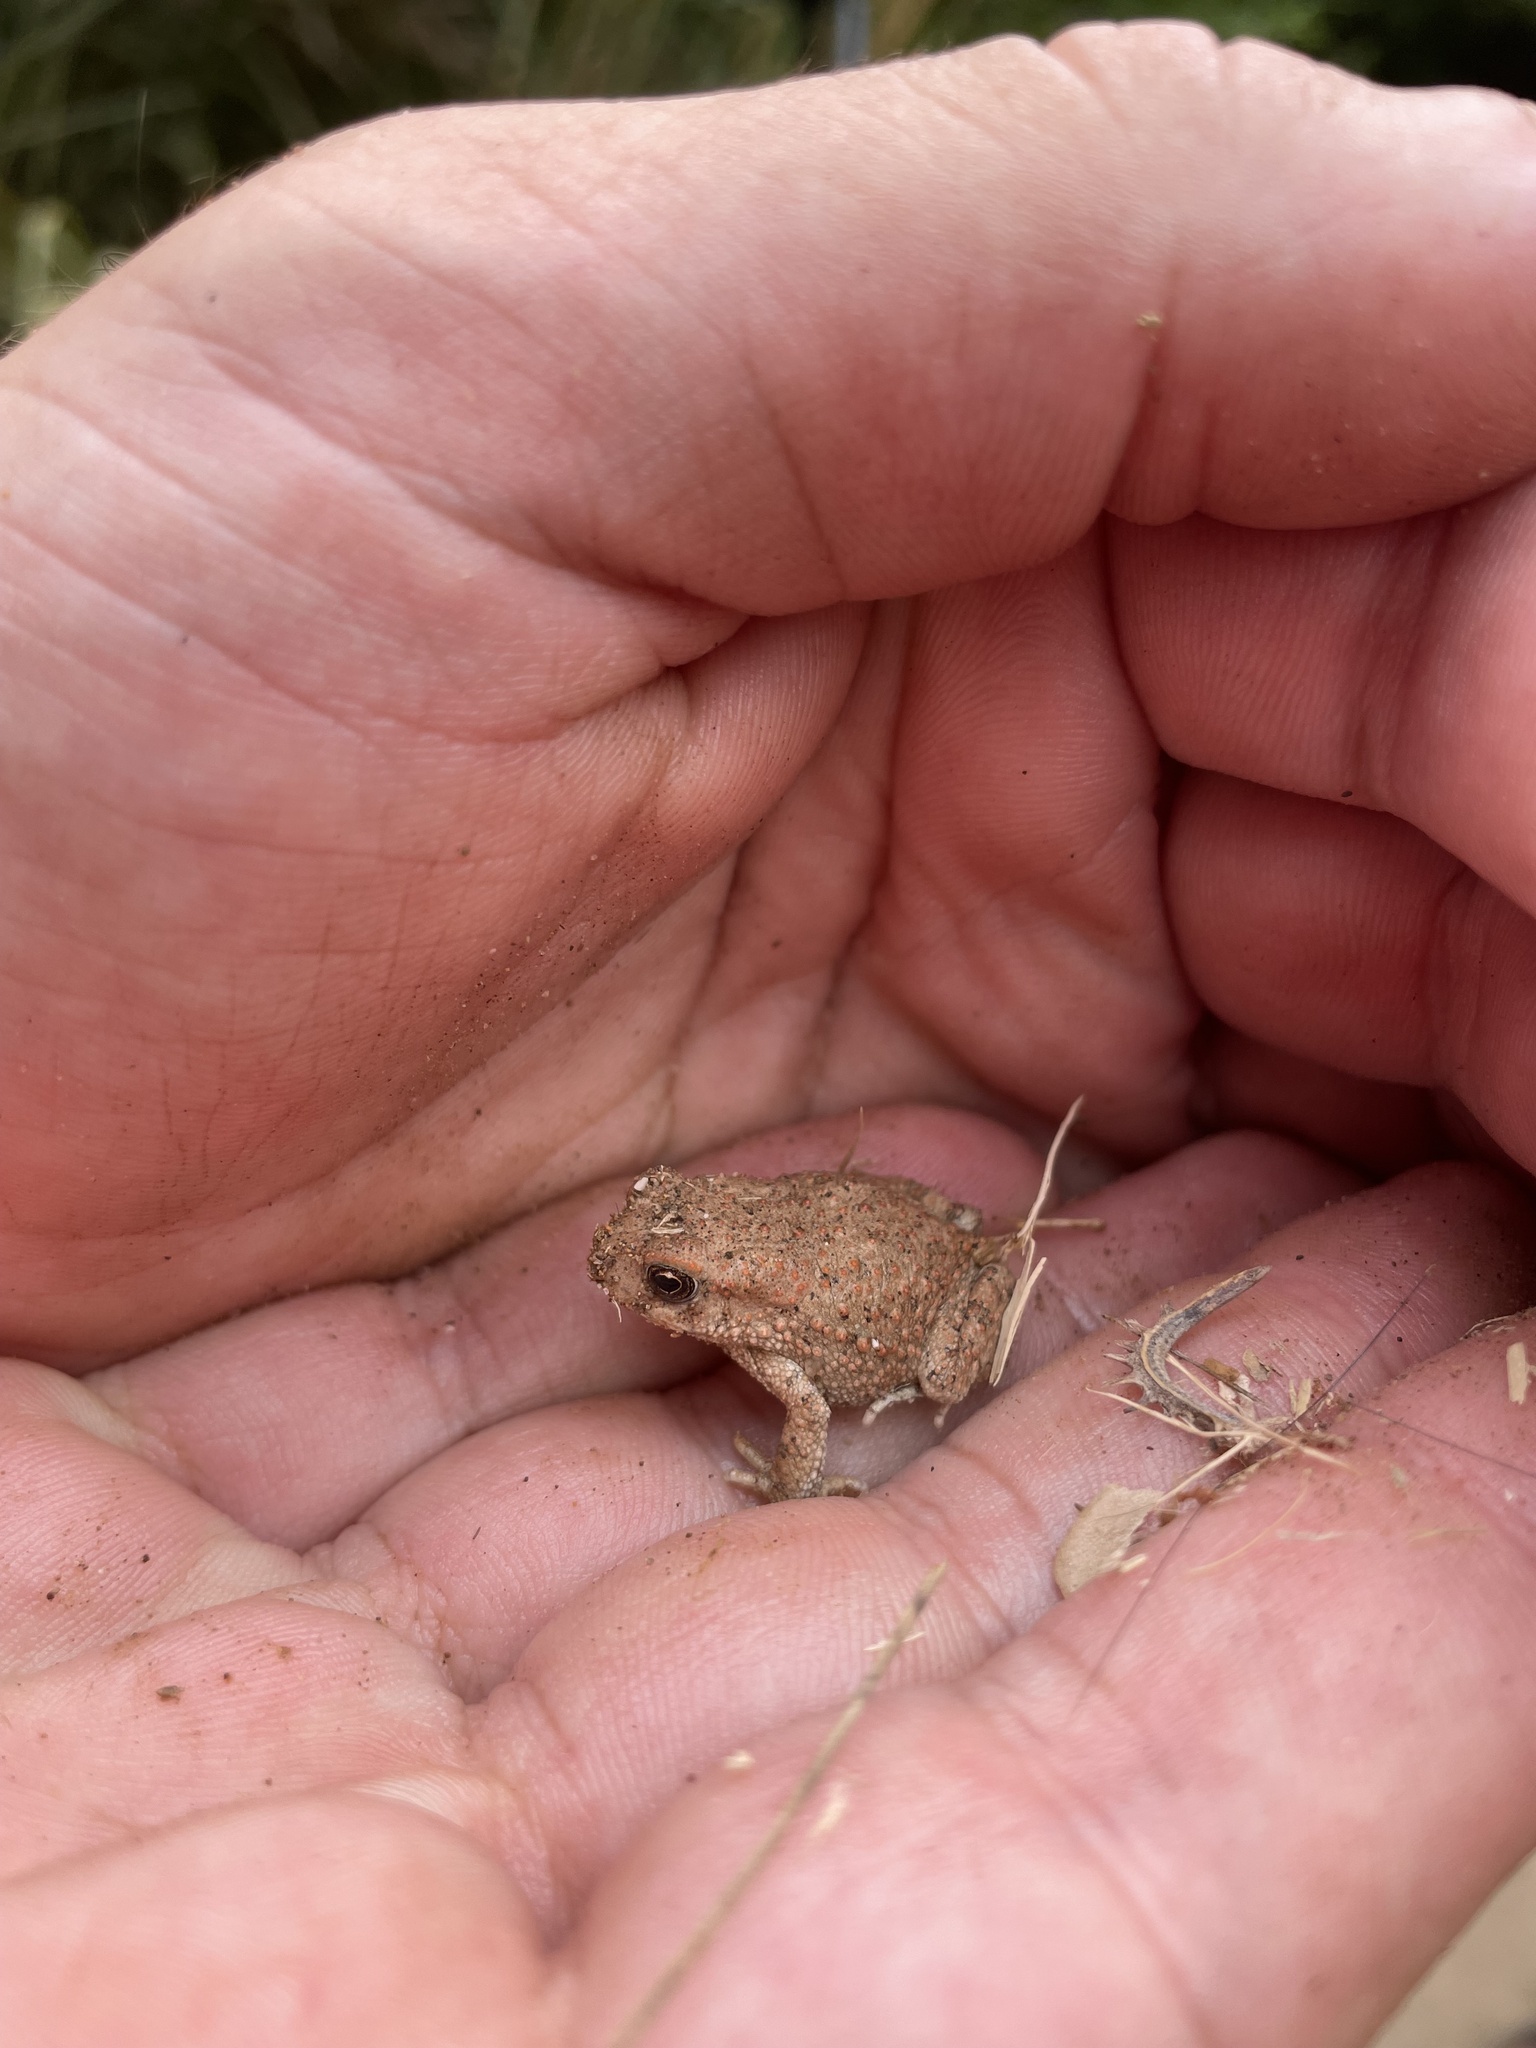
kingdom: Animalia
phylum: Chordata
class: Amphibia
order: Anura
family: Bufonidae
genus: Sclerophrys
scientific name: Sclerophrys mauritanica
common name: Berber toad
